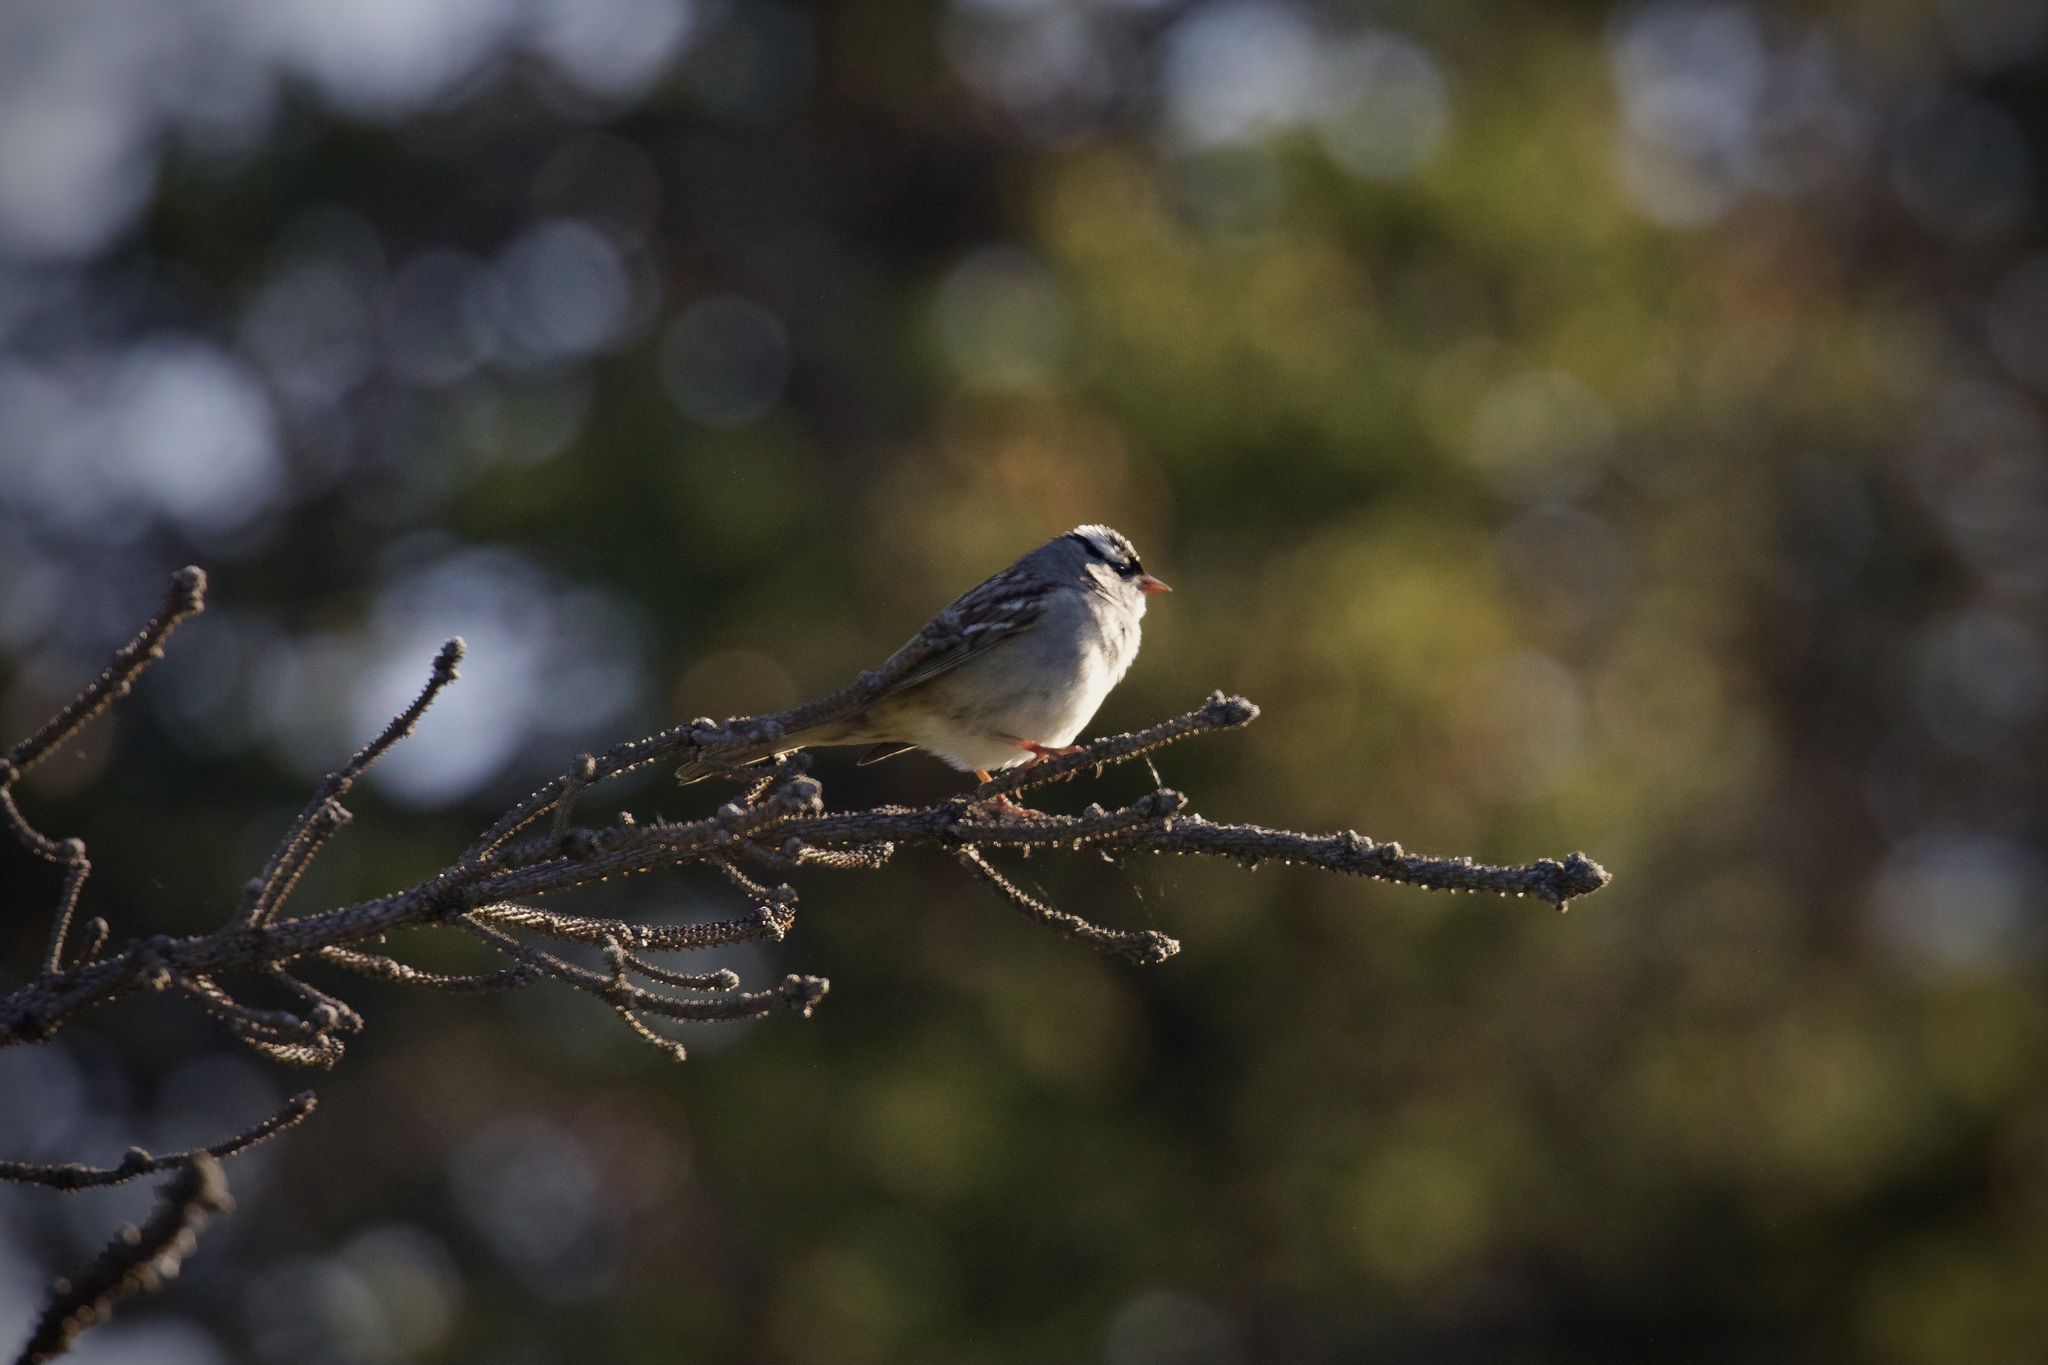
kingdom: Animalia
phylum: Chordata
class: Aves
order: Passeriformes
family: Passerellidae
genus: Zonotrichia
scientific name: Zonotrichia leucophrys
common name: White-crowned sparrow
